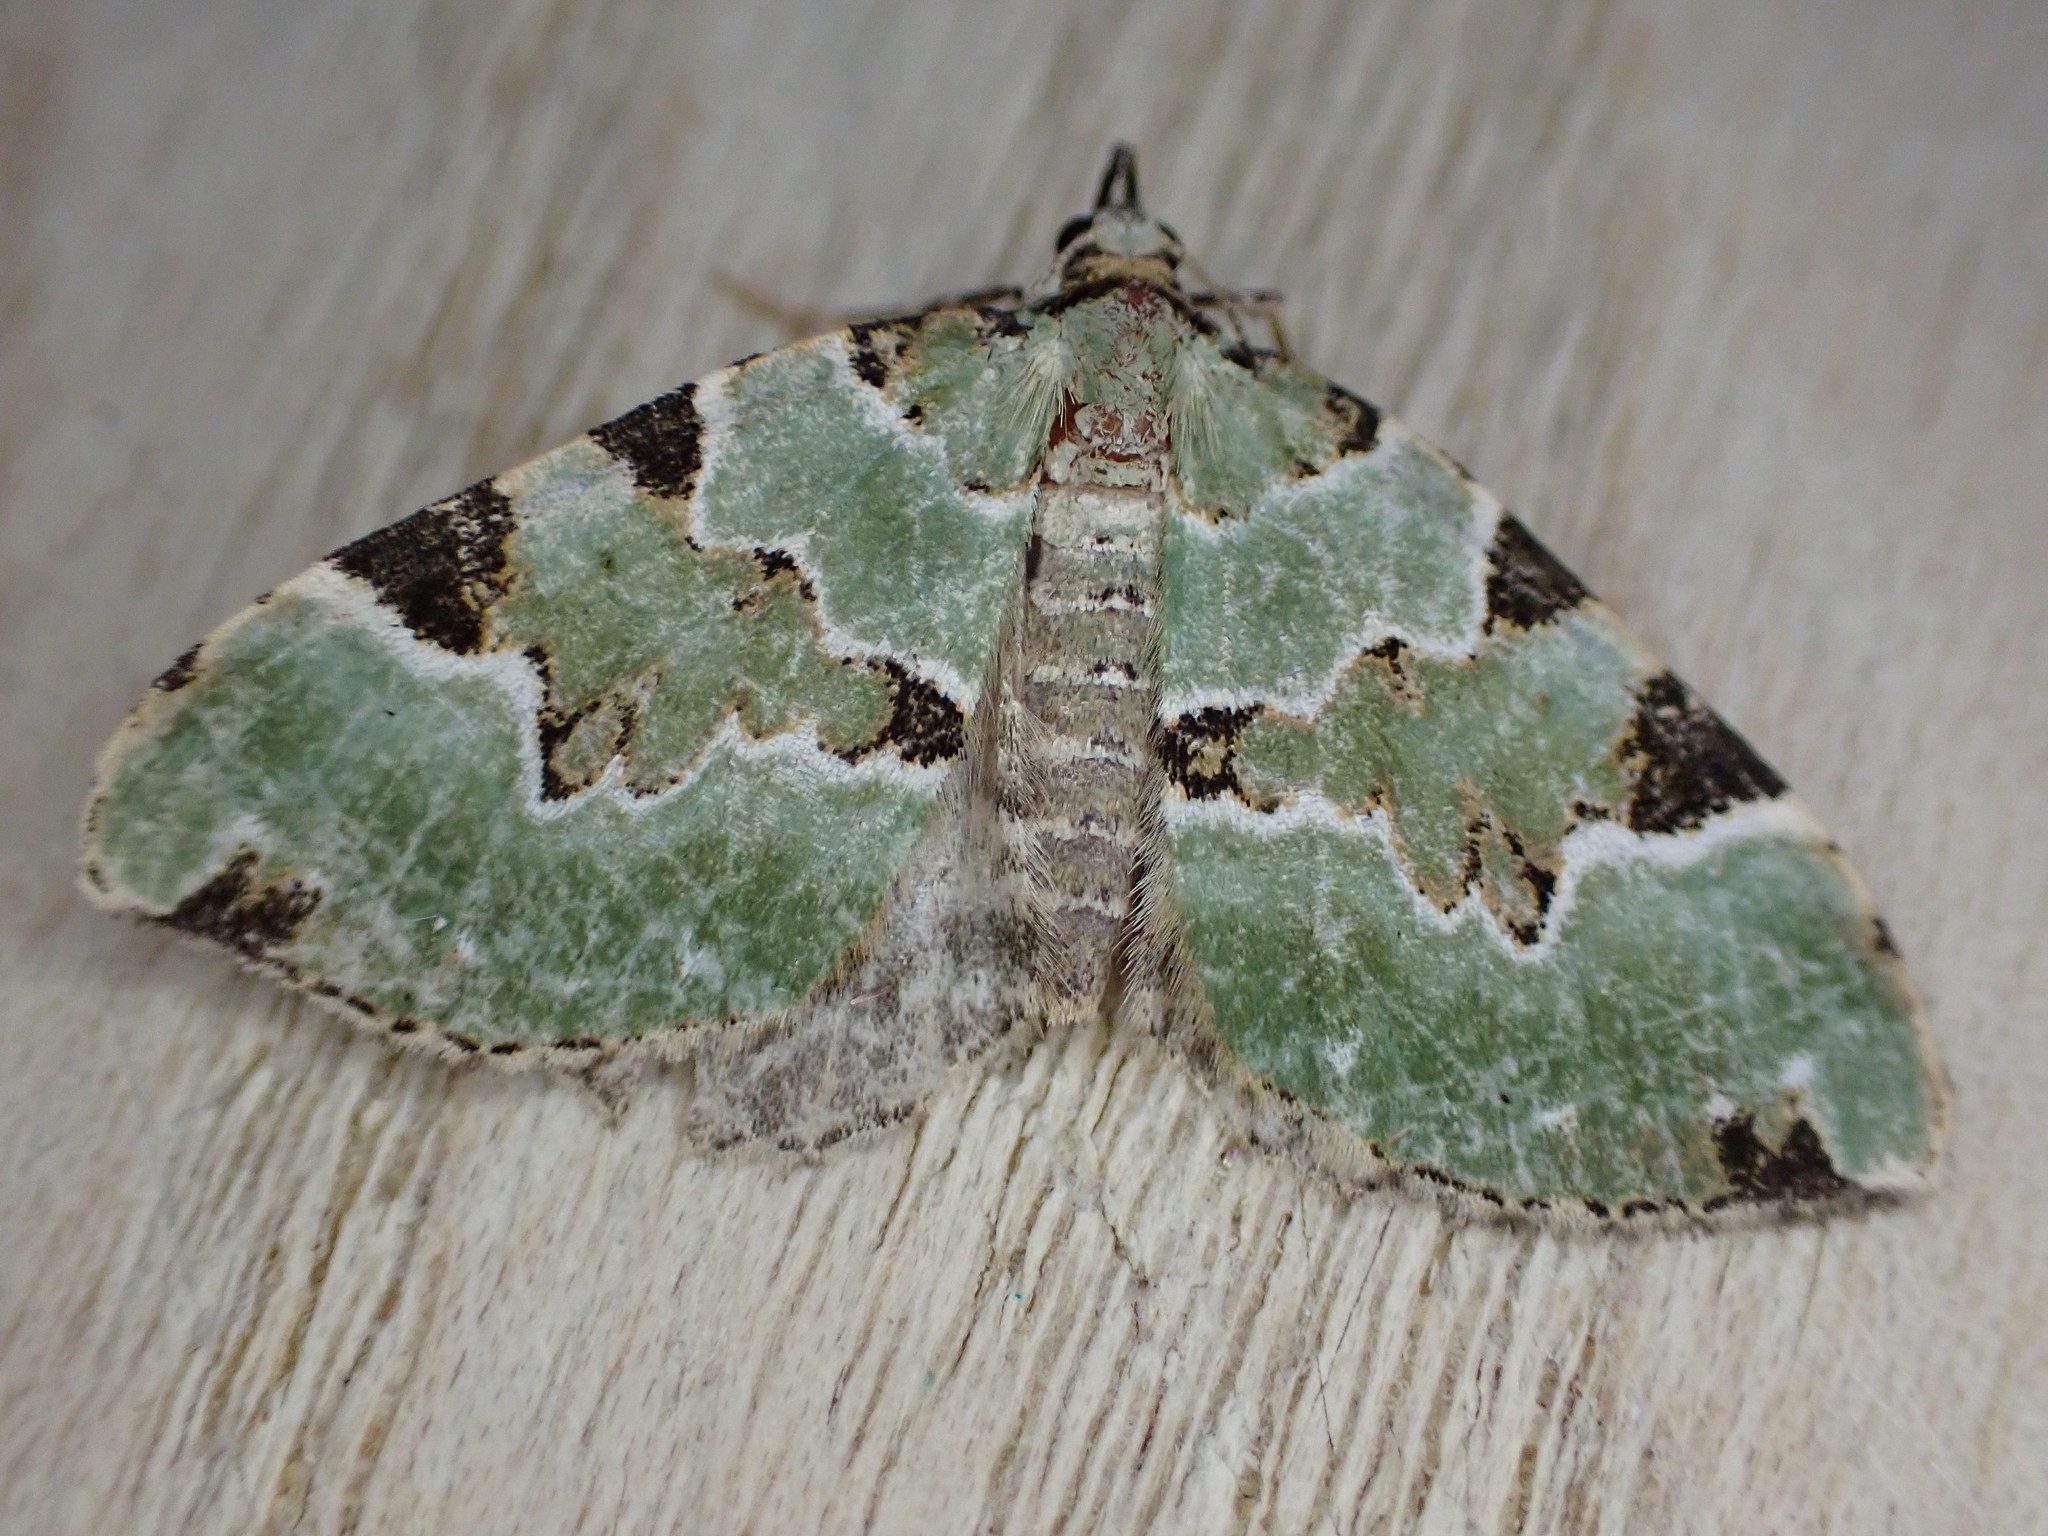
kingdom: Animalia
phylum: Arthropoda
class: Insecta
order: Lepidoptera
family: Geometridae
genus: Colostygia
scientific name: Colostygia pectinataria
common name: Green carpet
